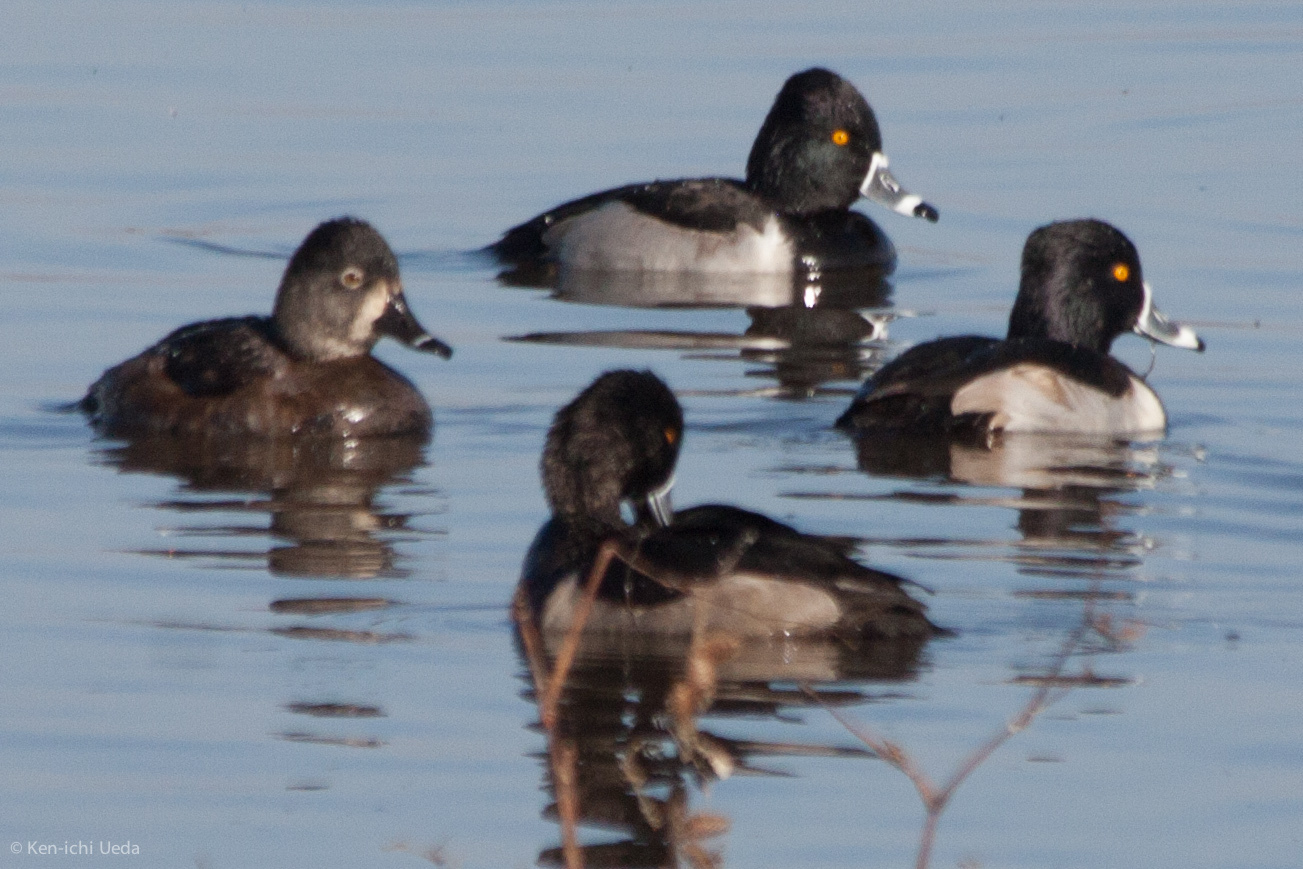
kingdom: Animalia
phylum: Chordata
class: Aves
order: Anseriformes
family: Anatidae
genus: Aythya
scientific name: Aythya collaris
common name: Ring-necked duck
